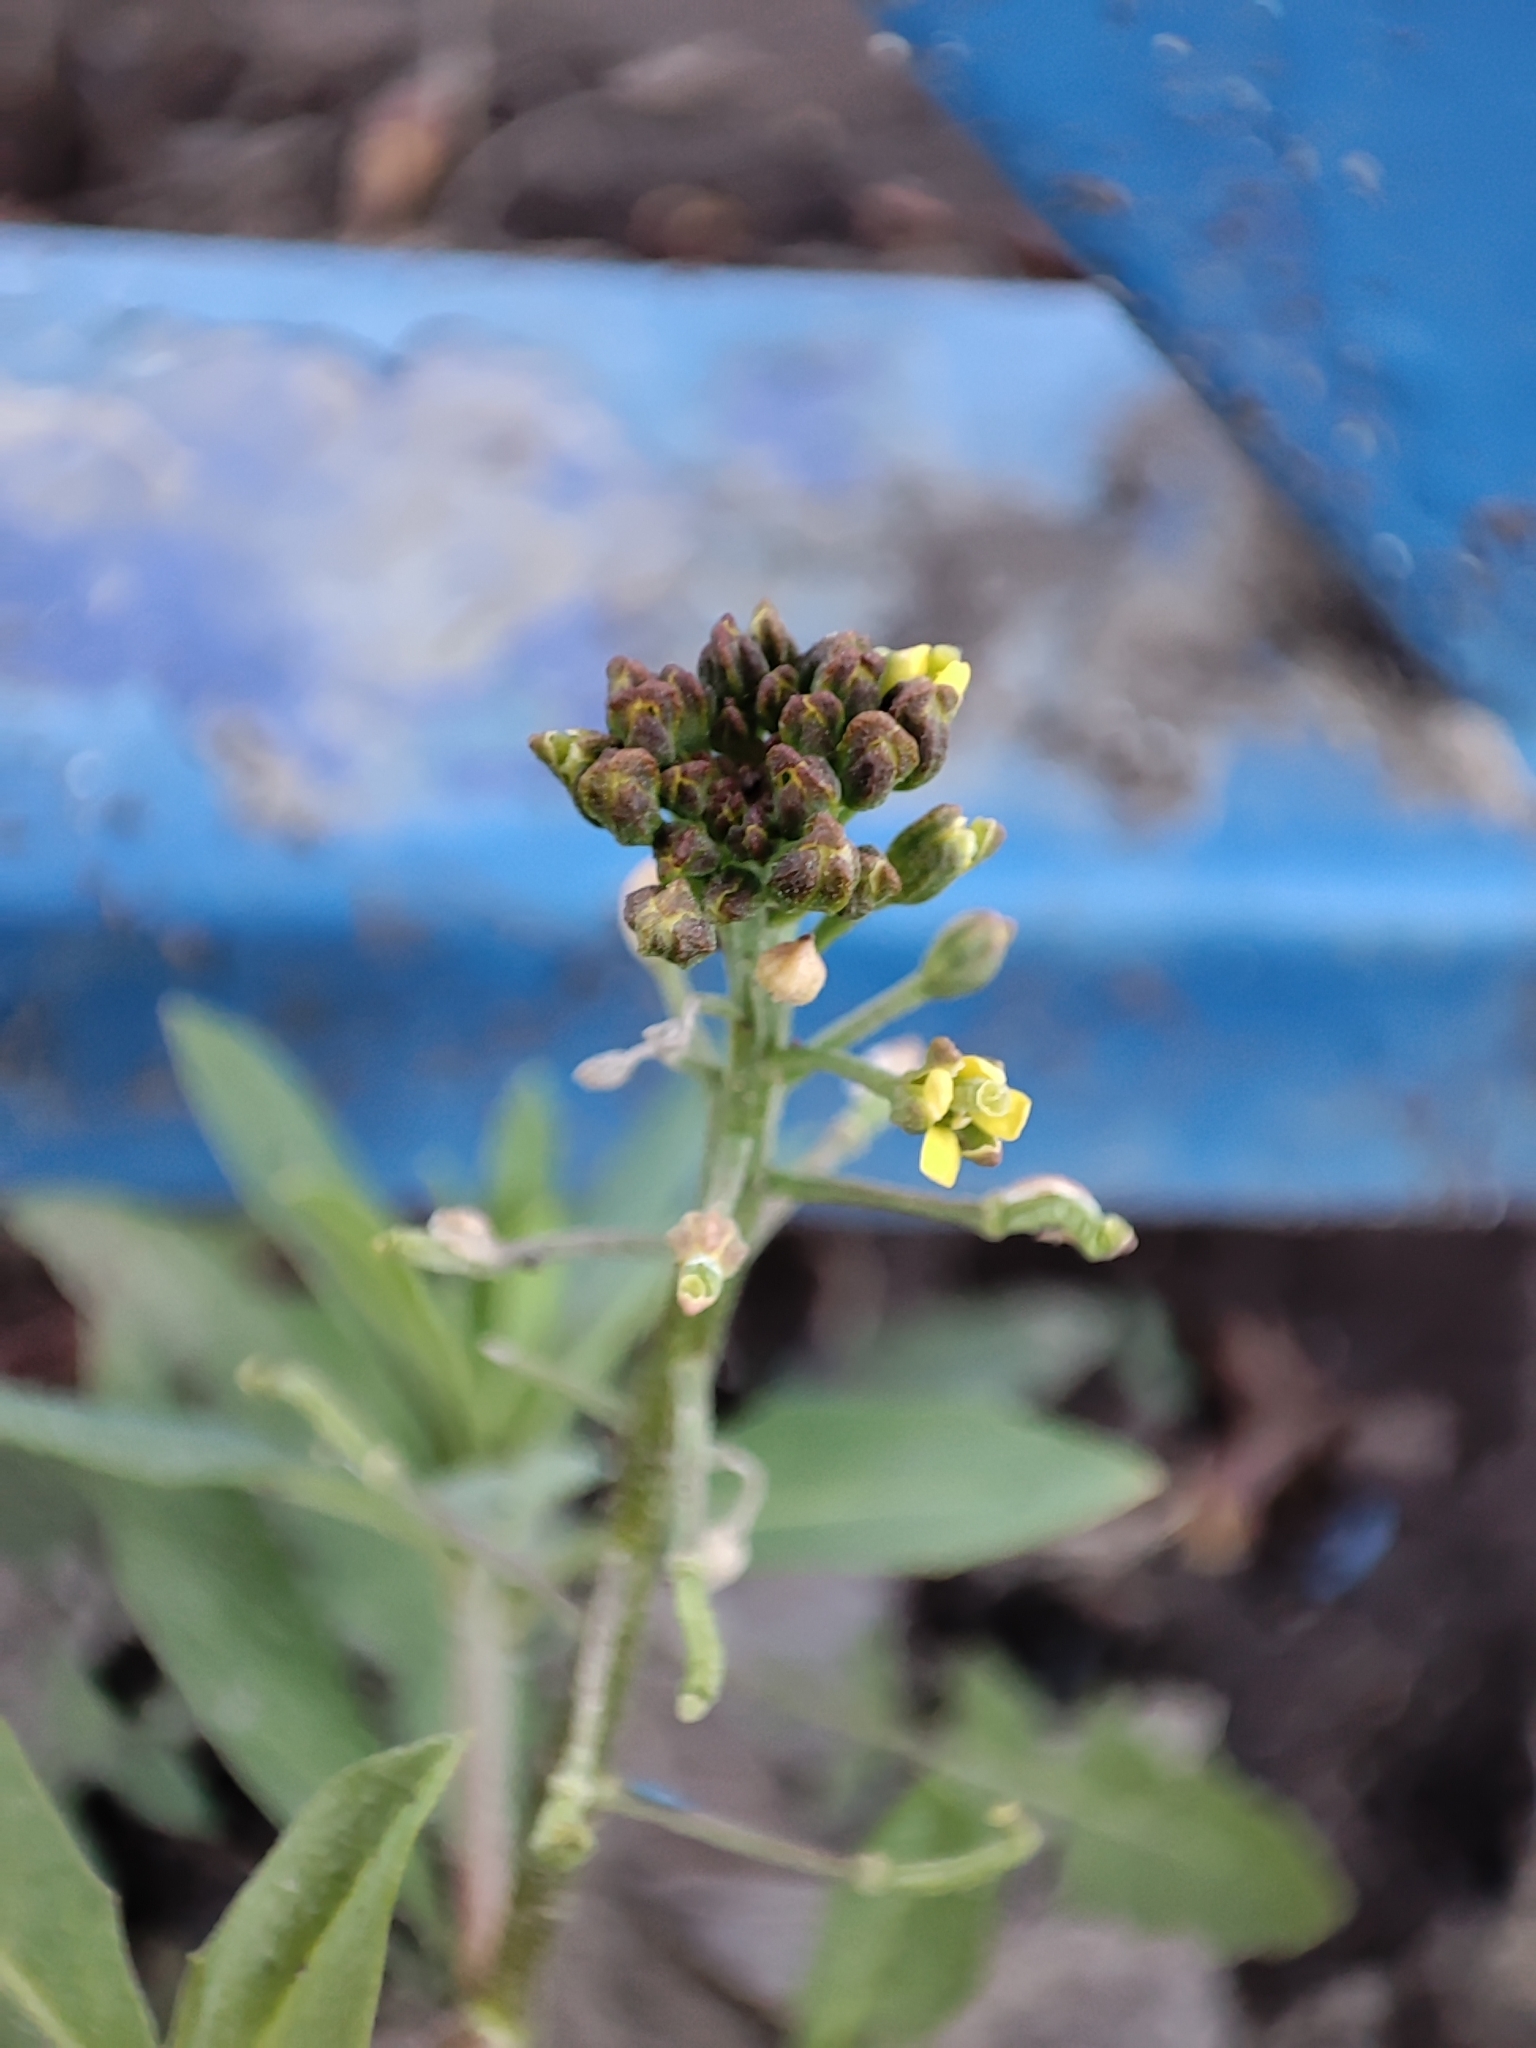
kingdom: Plantae
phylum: Tracheophyta
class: Magnoliopsida
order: Brassicales
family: Brassicaceae
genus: Erysimum
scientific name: Erysimum cheiranthoides
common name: Treacle mustard
